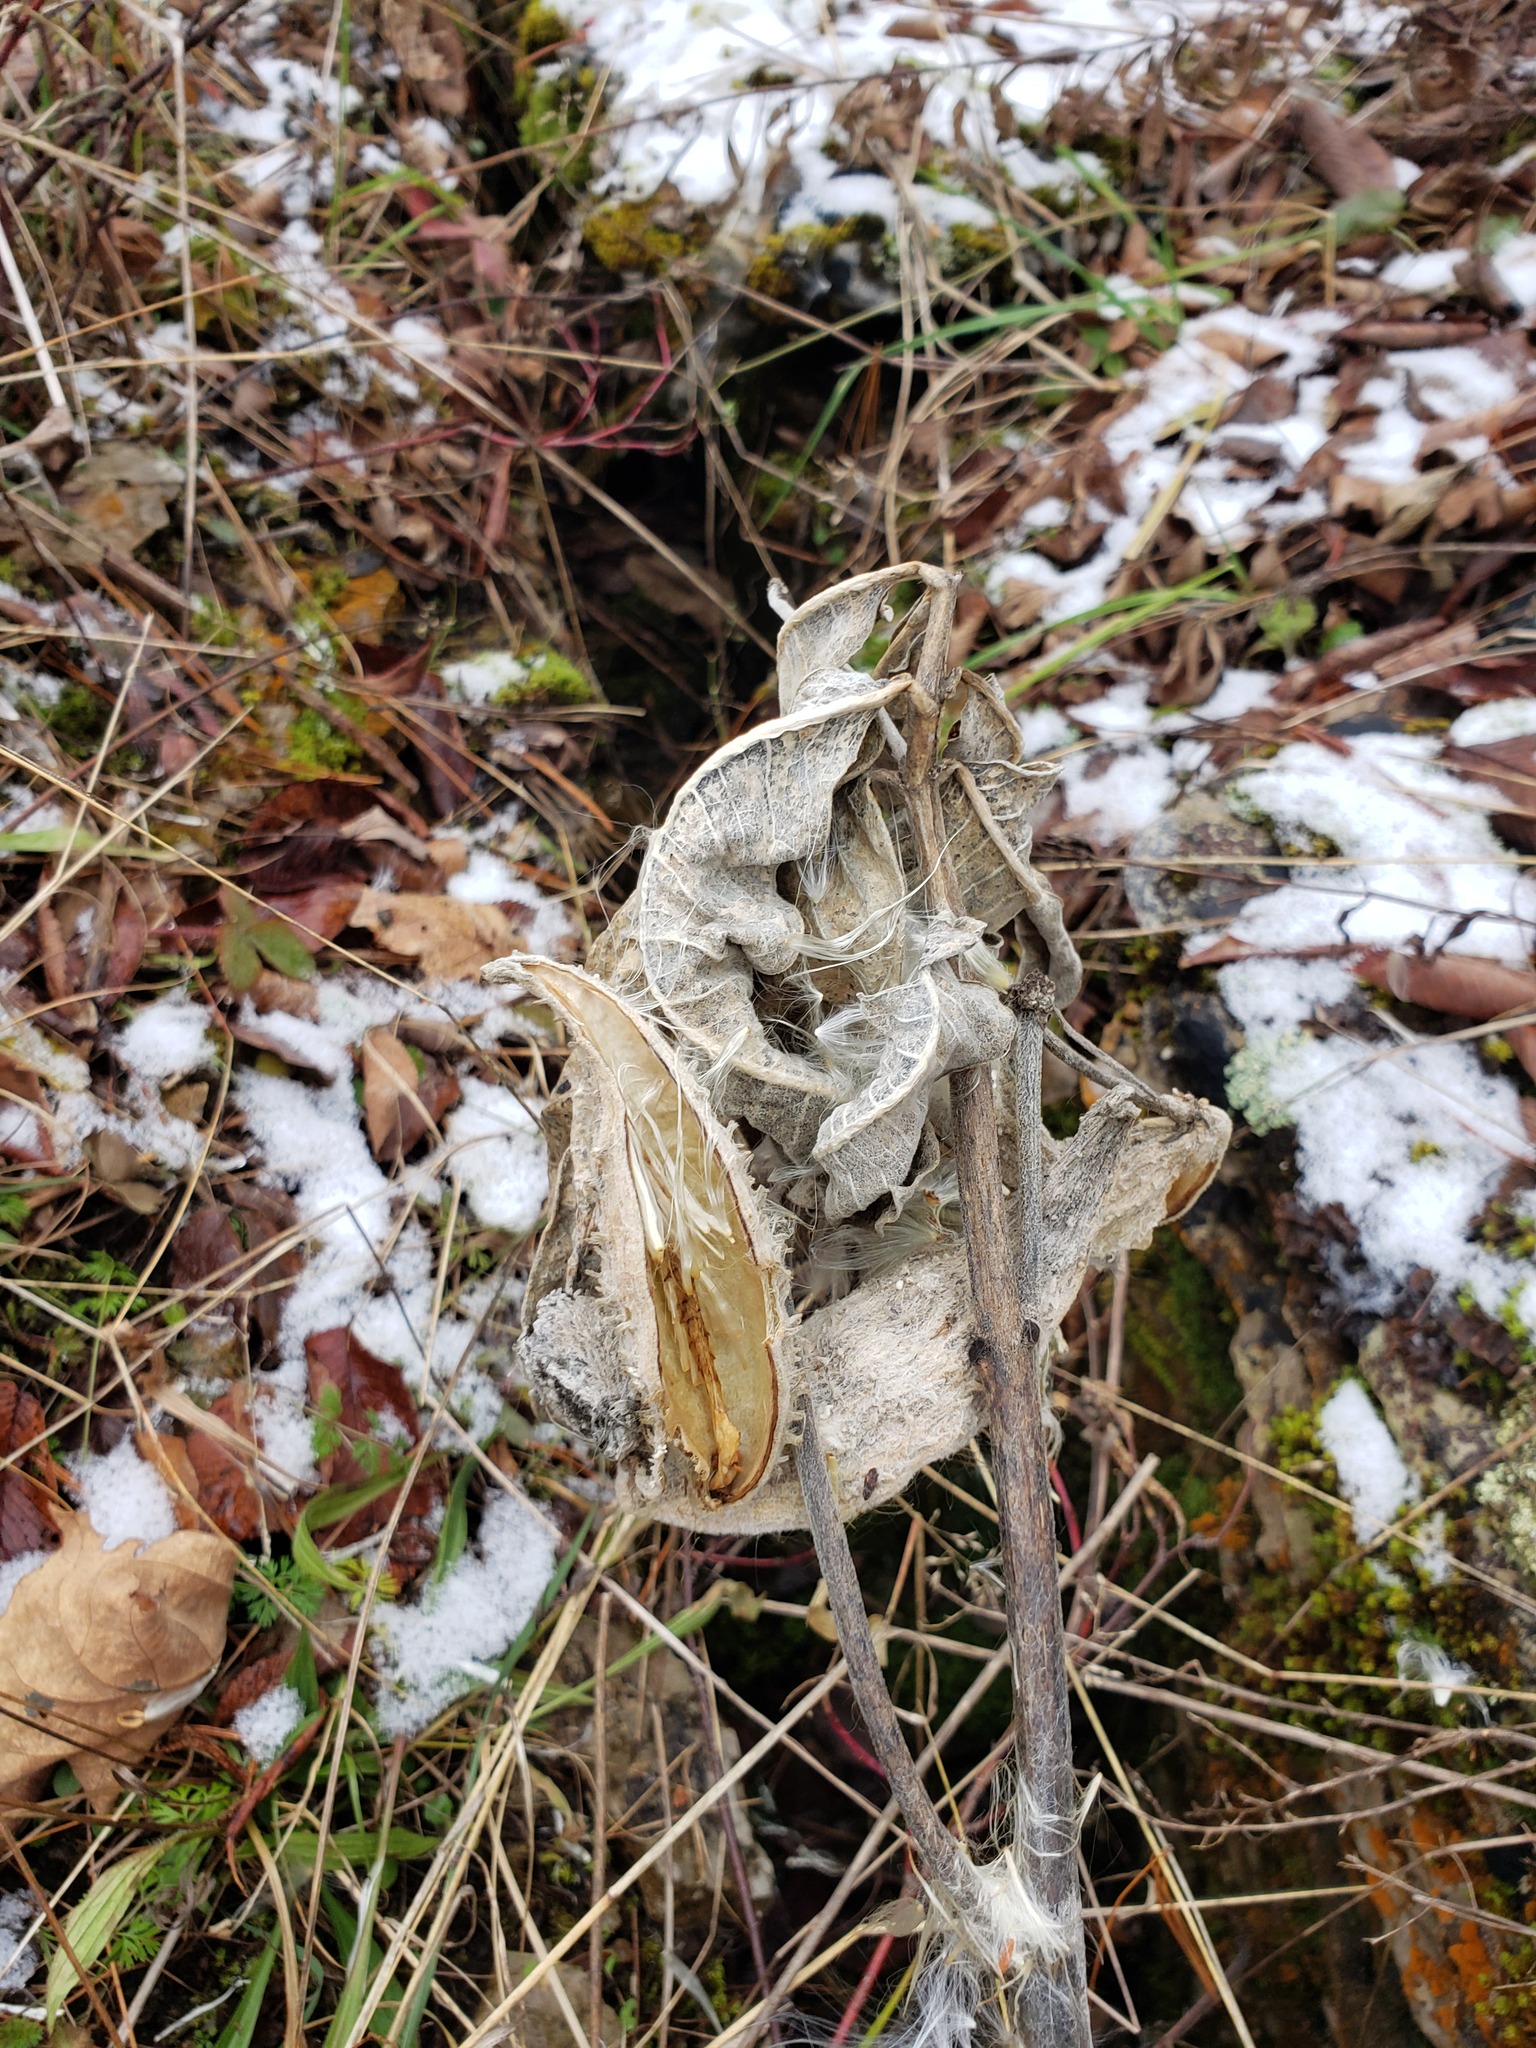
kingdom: Plantae
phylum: Tracheophyta
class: Magnoliopsida
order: Gentianales
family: Apocynaceae
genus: Asclepias
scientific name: Asclepias syriaca
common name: Common milkweed
